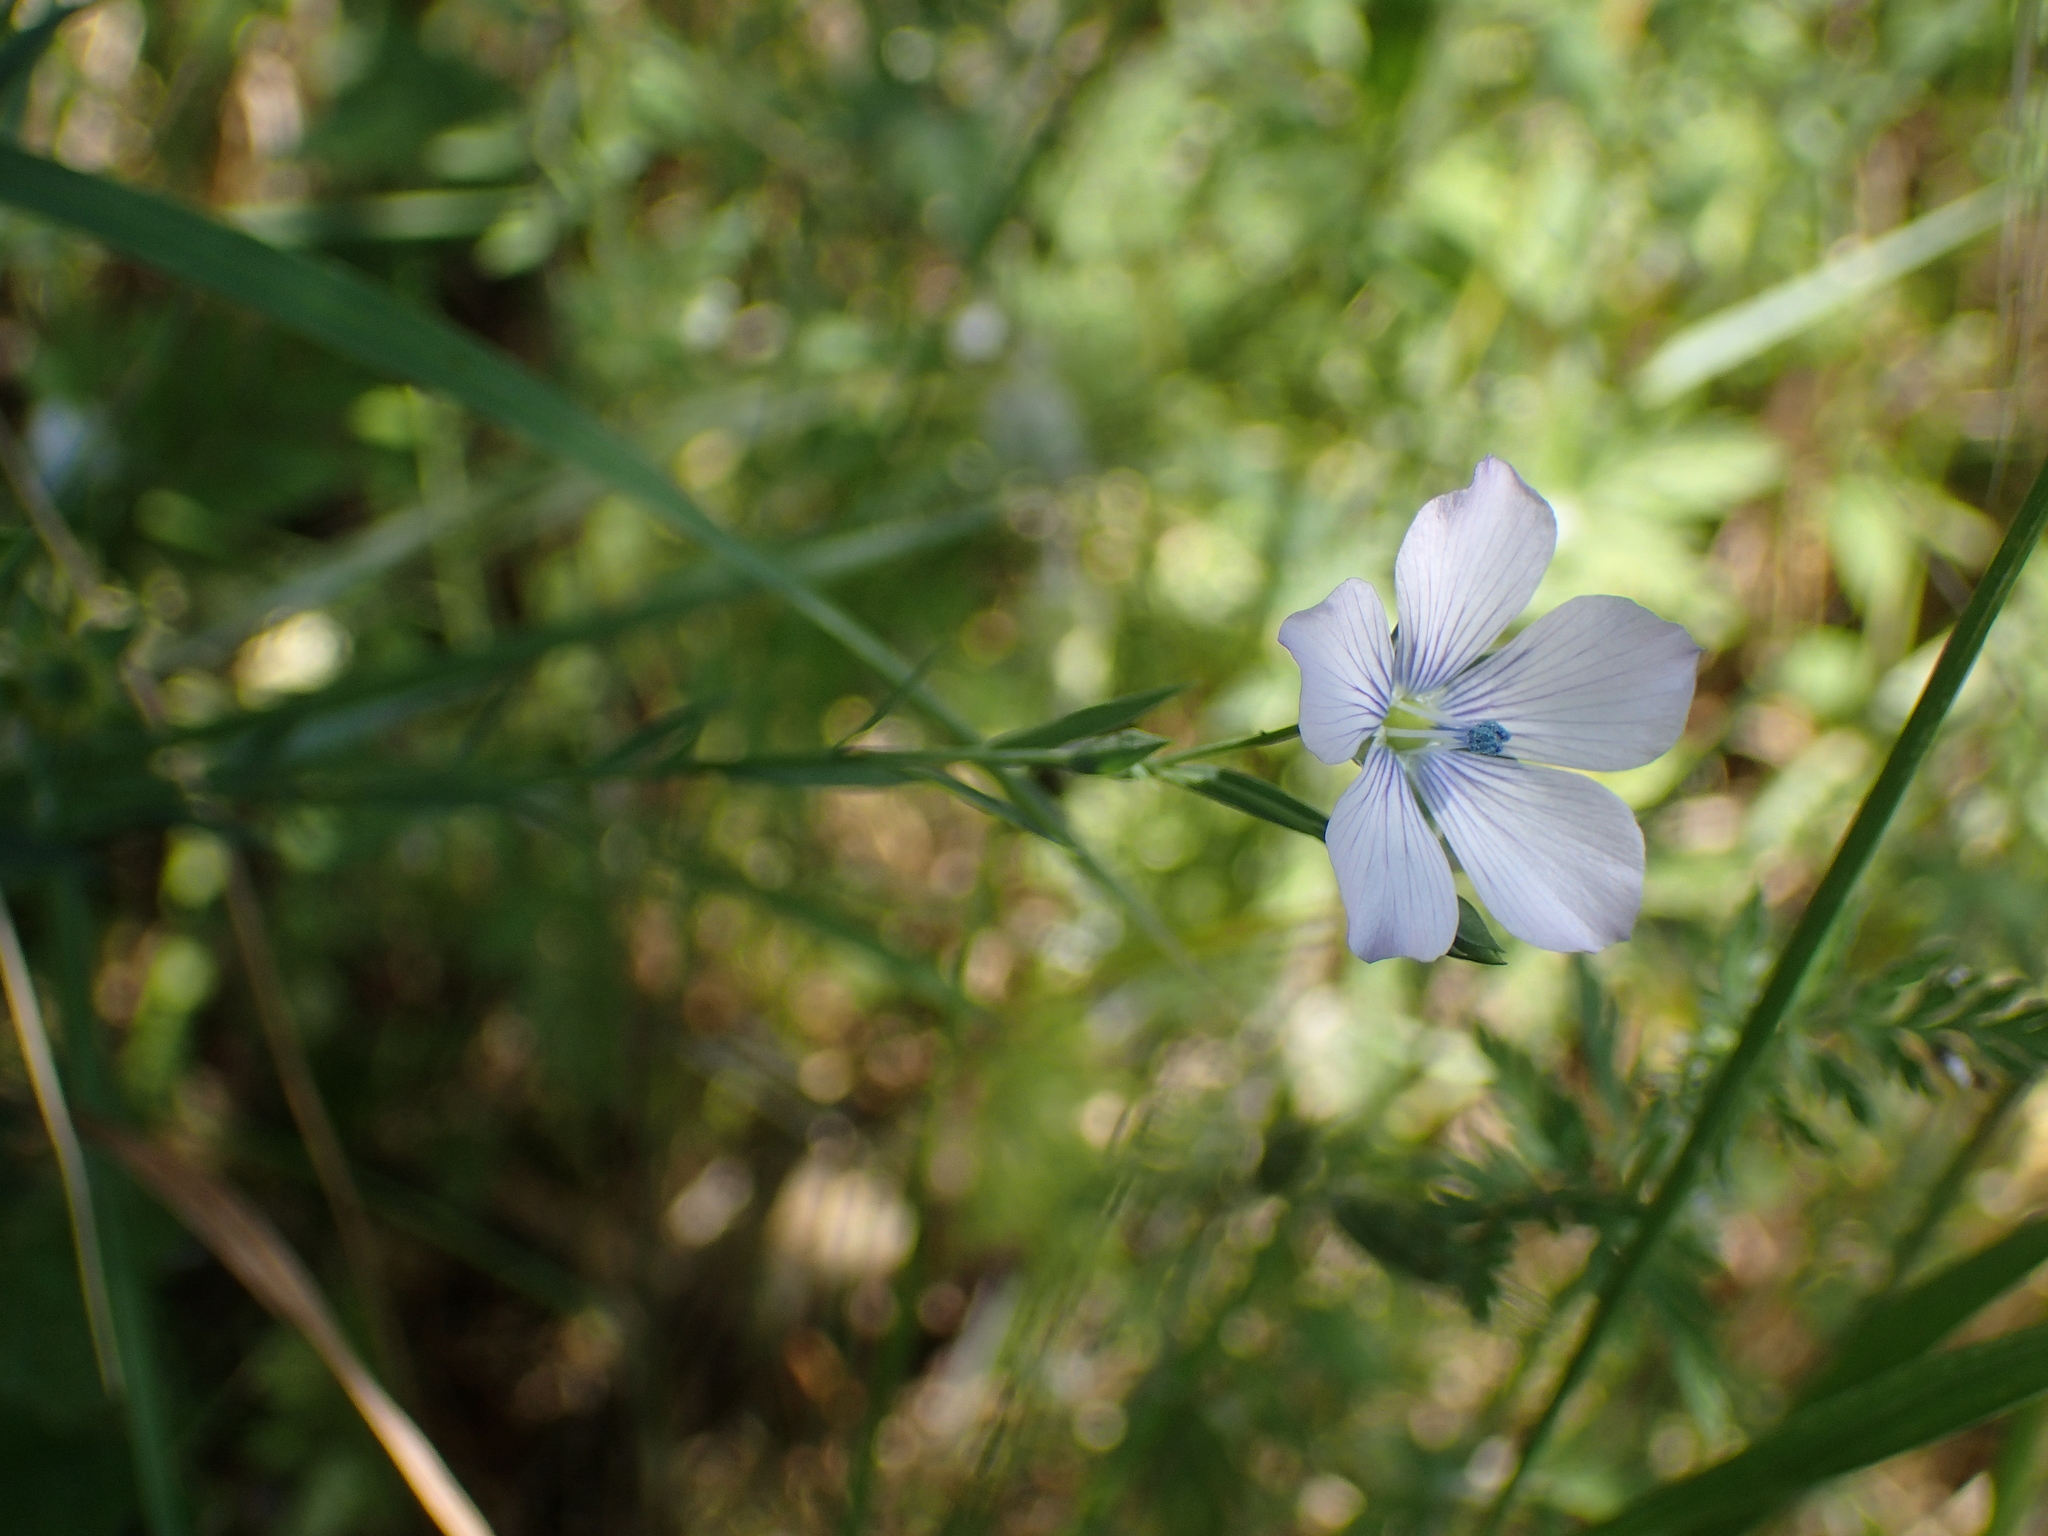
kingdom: Plantae
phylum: Tracheophyta
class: Magnoliopsida
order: Malpighiales
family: Linaceae
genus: Linum
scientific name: Linum usitatissimum
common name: Flax
